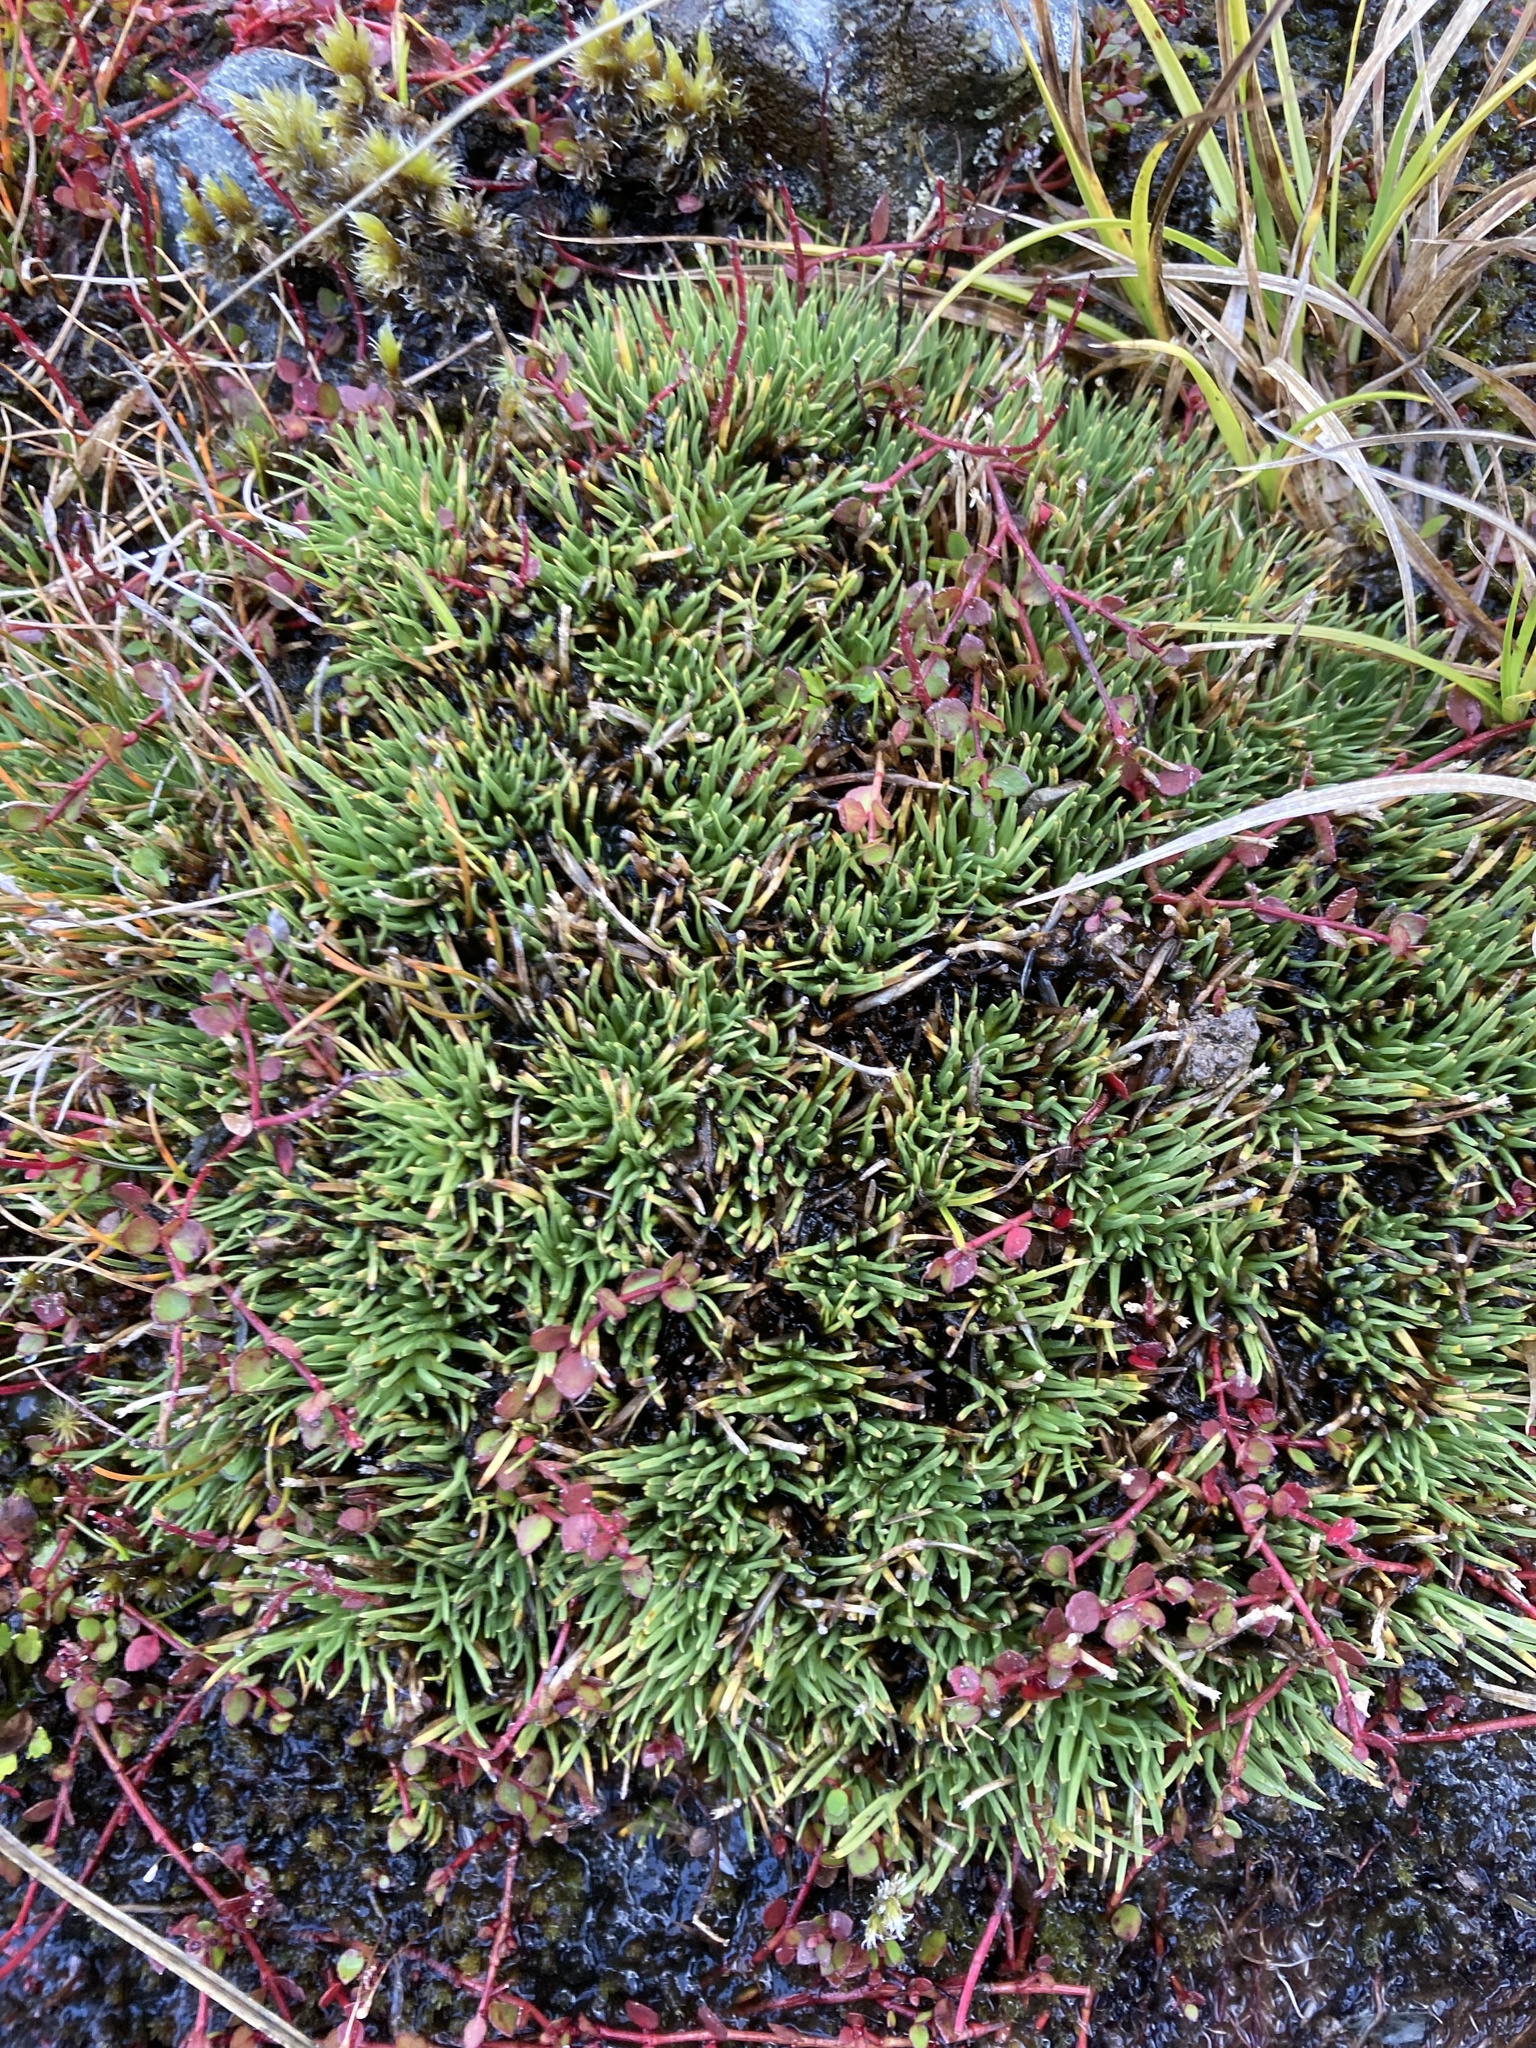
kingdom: Plantae
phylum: Tracheophyta
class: Liliopsida
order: Poales
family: Cyperaceae
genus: Oreobolus
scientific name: Oreobolus pectinatus
